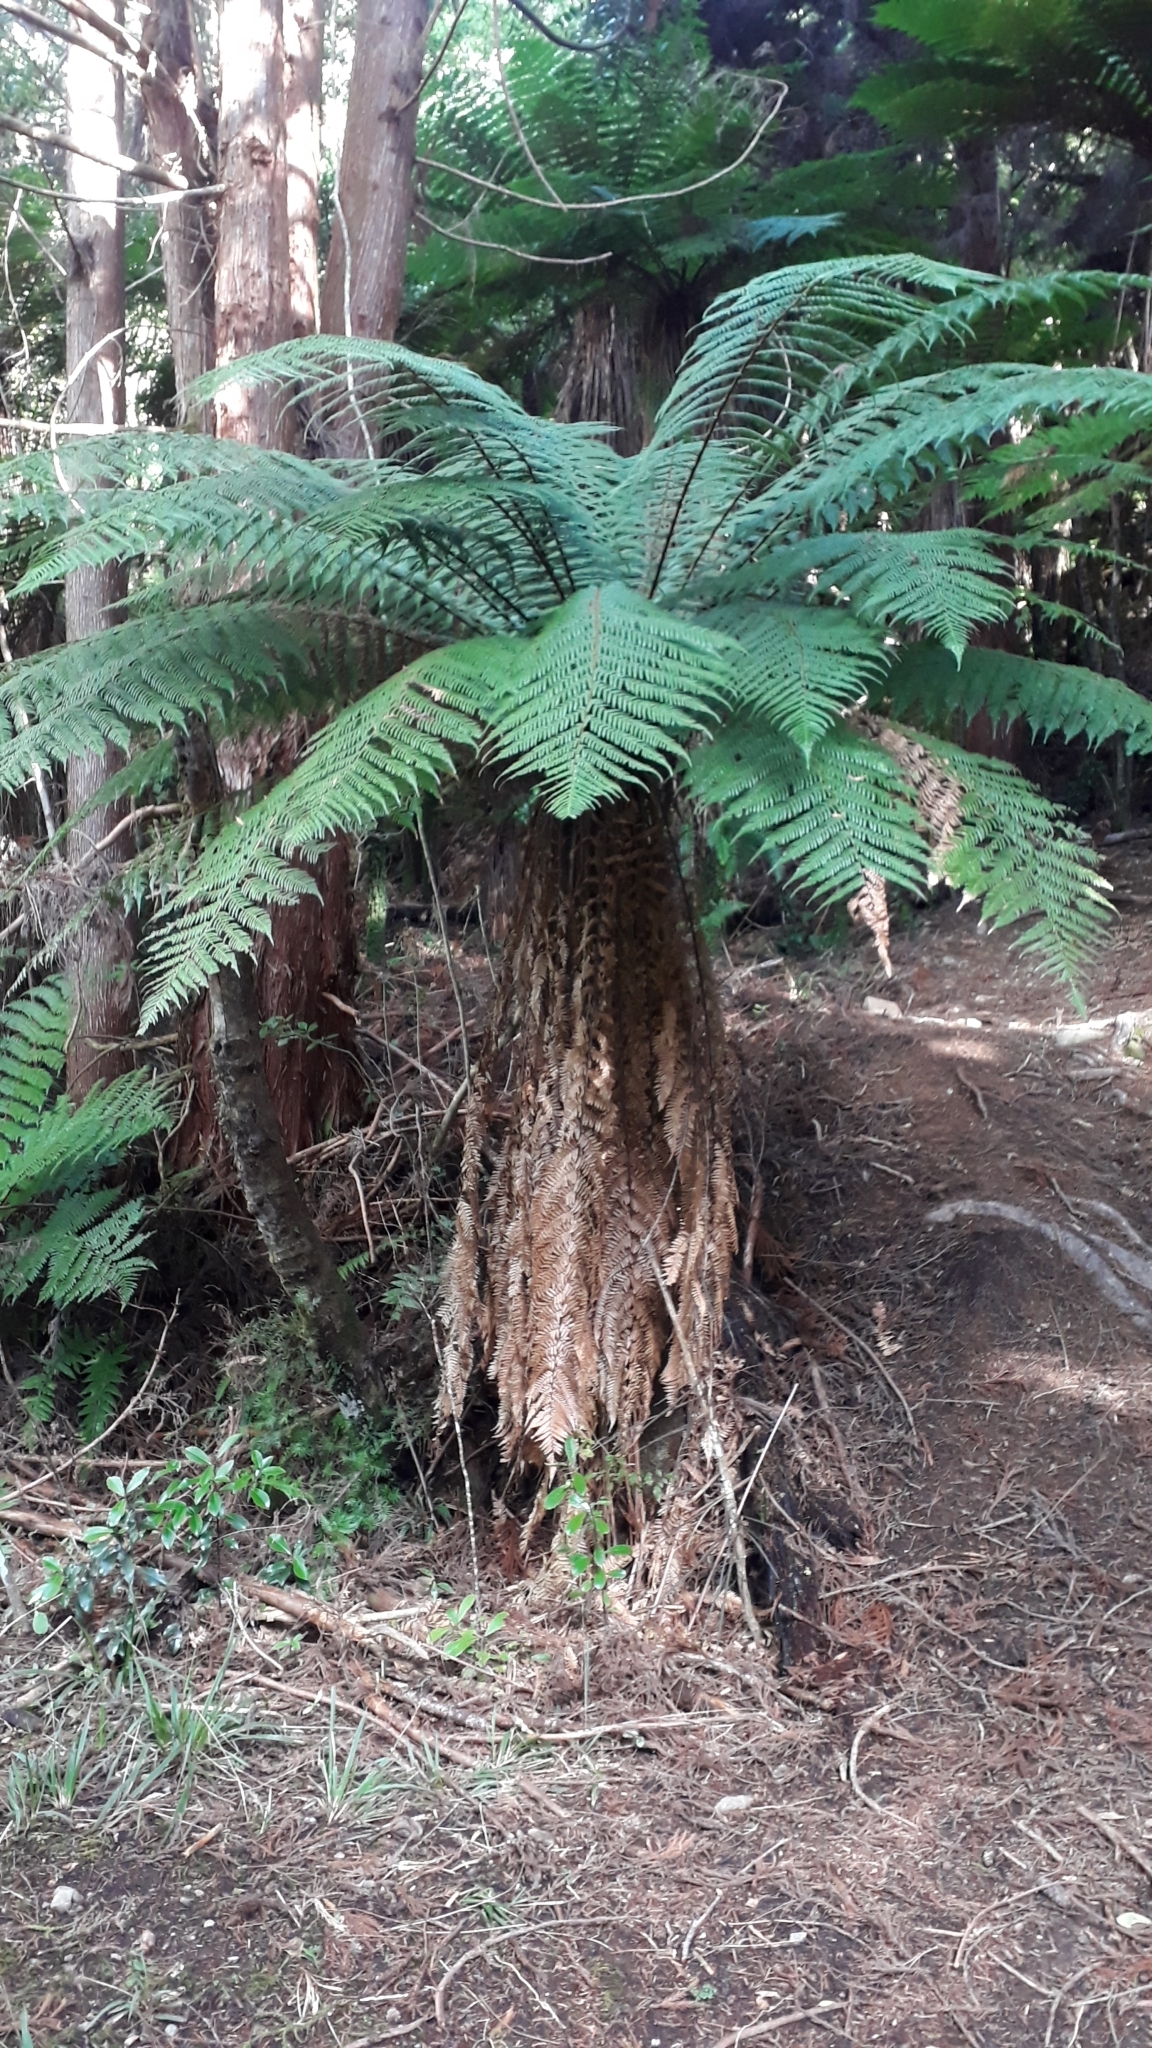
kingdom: Plantae
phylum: Tracheophyta
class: Polypodiopsida
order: Cyatheales
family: Dicksoniaceae
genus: Dicksonia
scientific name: Dicksonia fibrosa
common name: Golden tree fern
